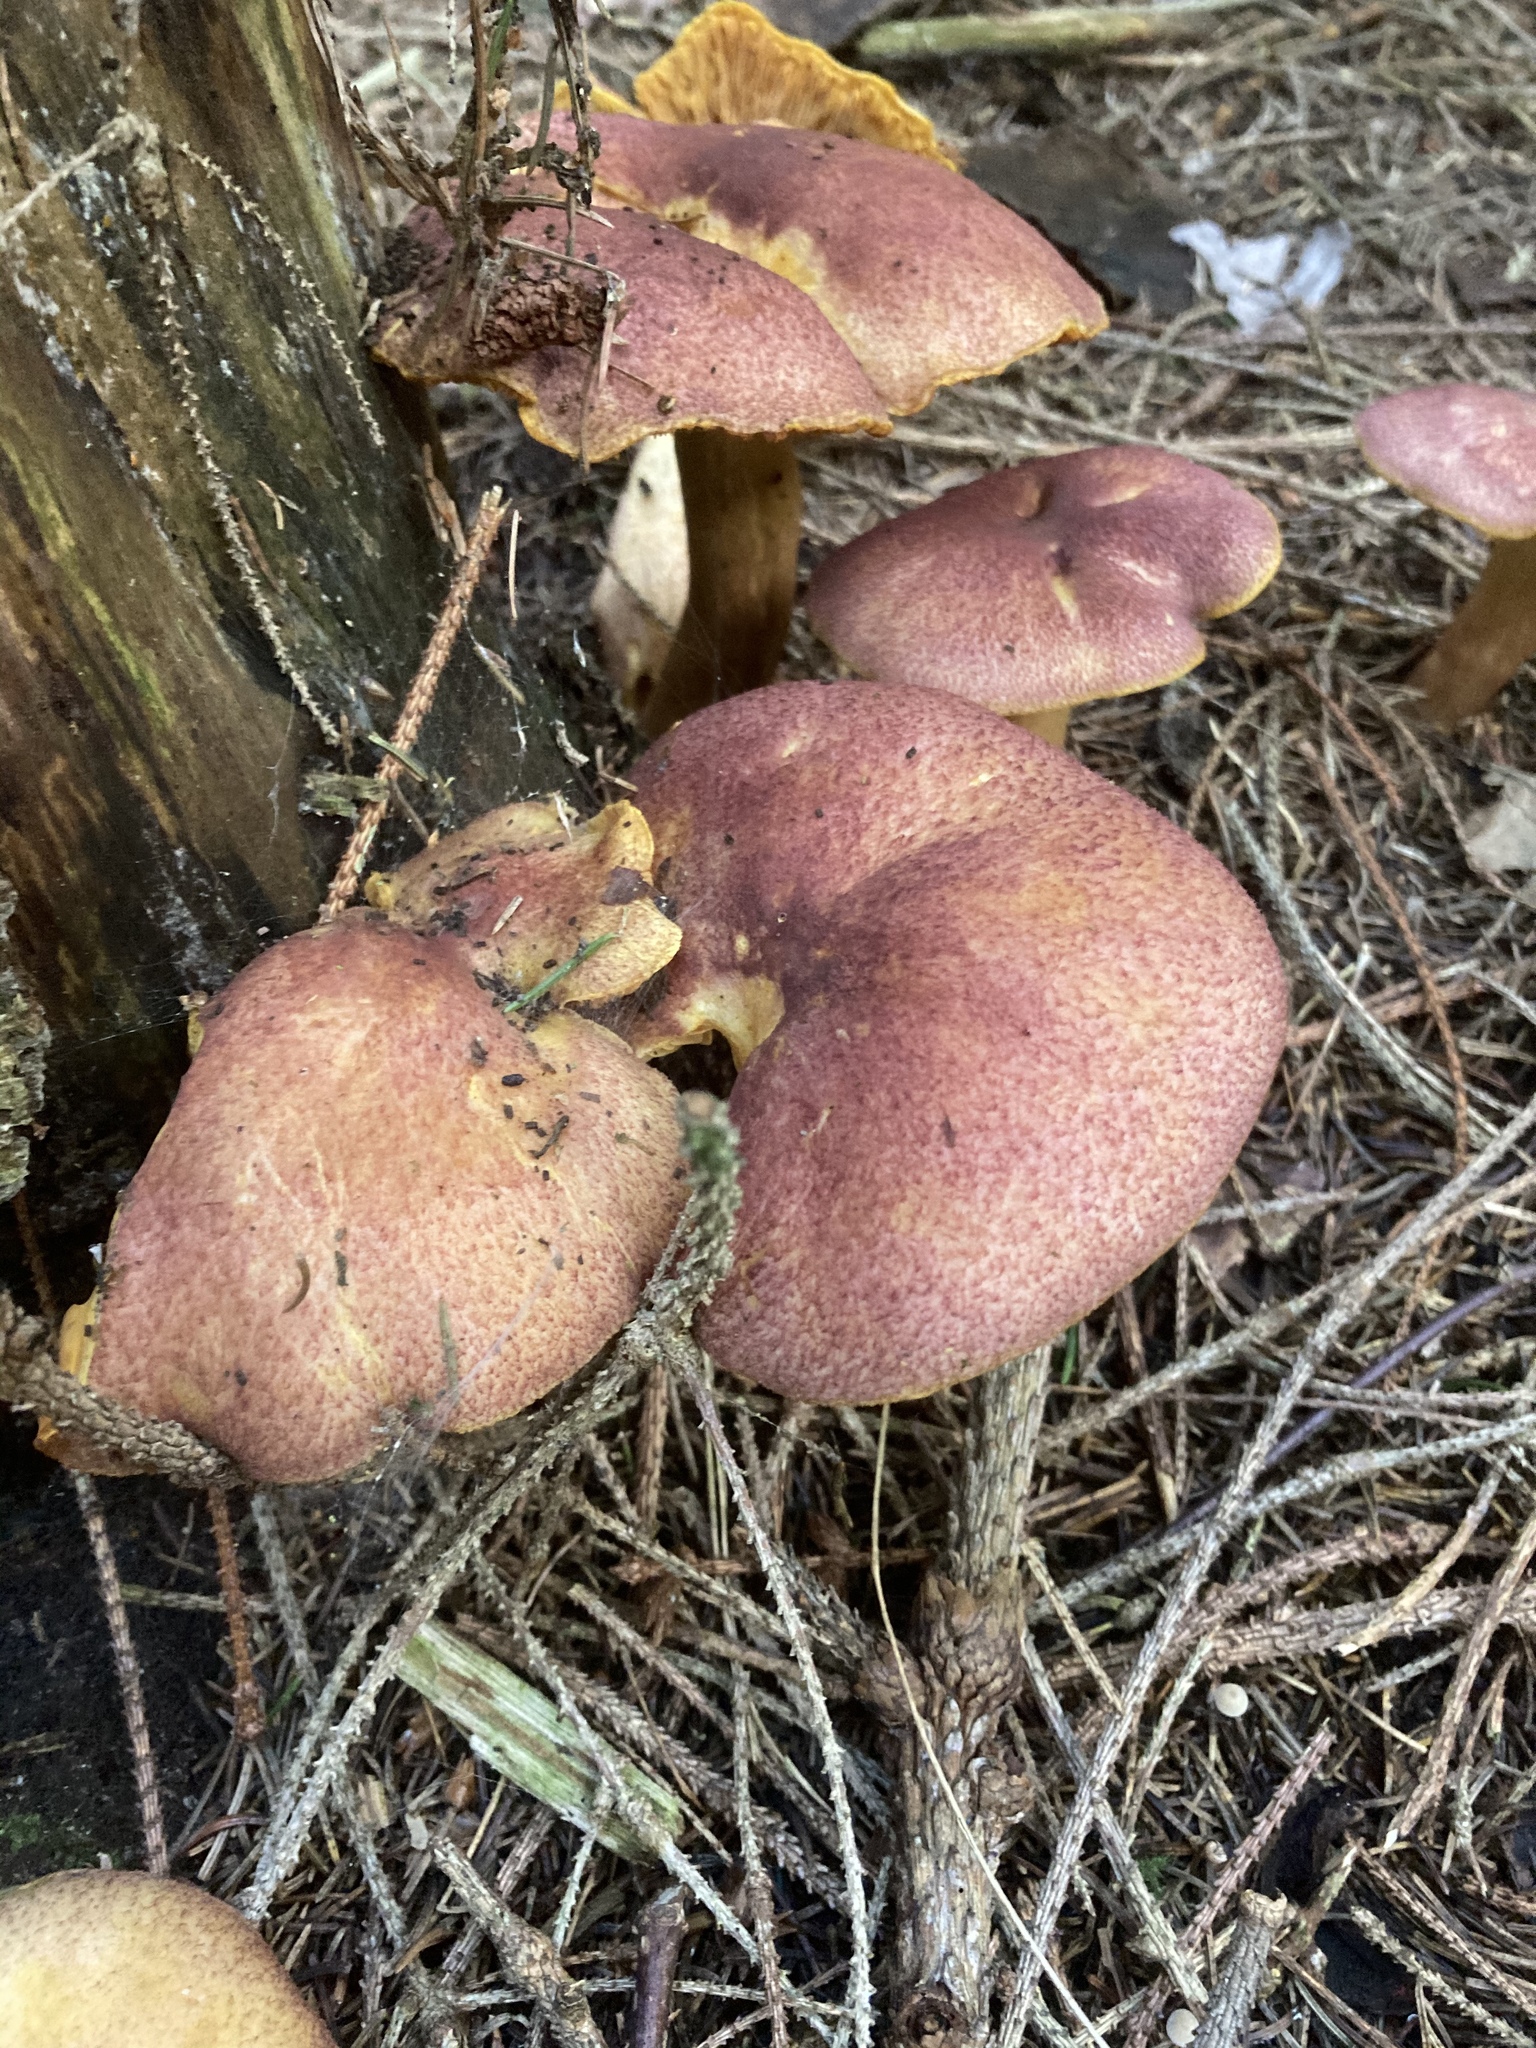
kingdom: Fungi
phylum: Basidiomycota
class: Agaricomycetes
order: Agaricales
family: Tricholomataceae
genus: Tricholomopsis
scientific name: Tricholomopsis rutilans
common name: Plums and custard
